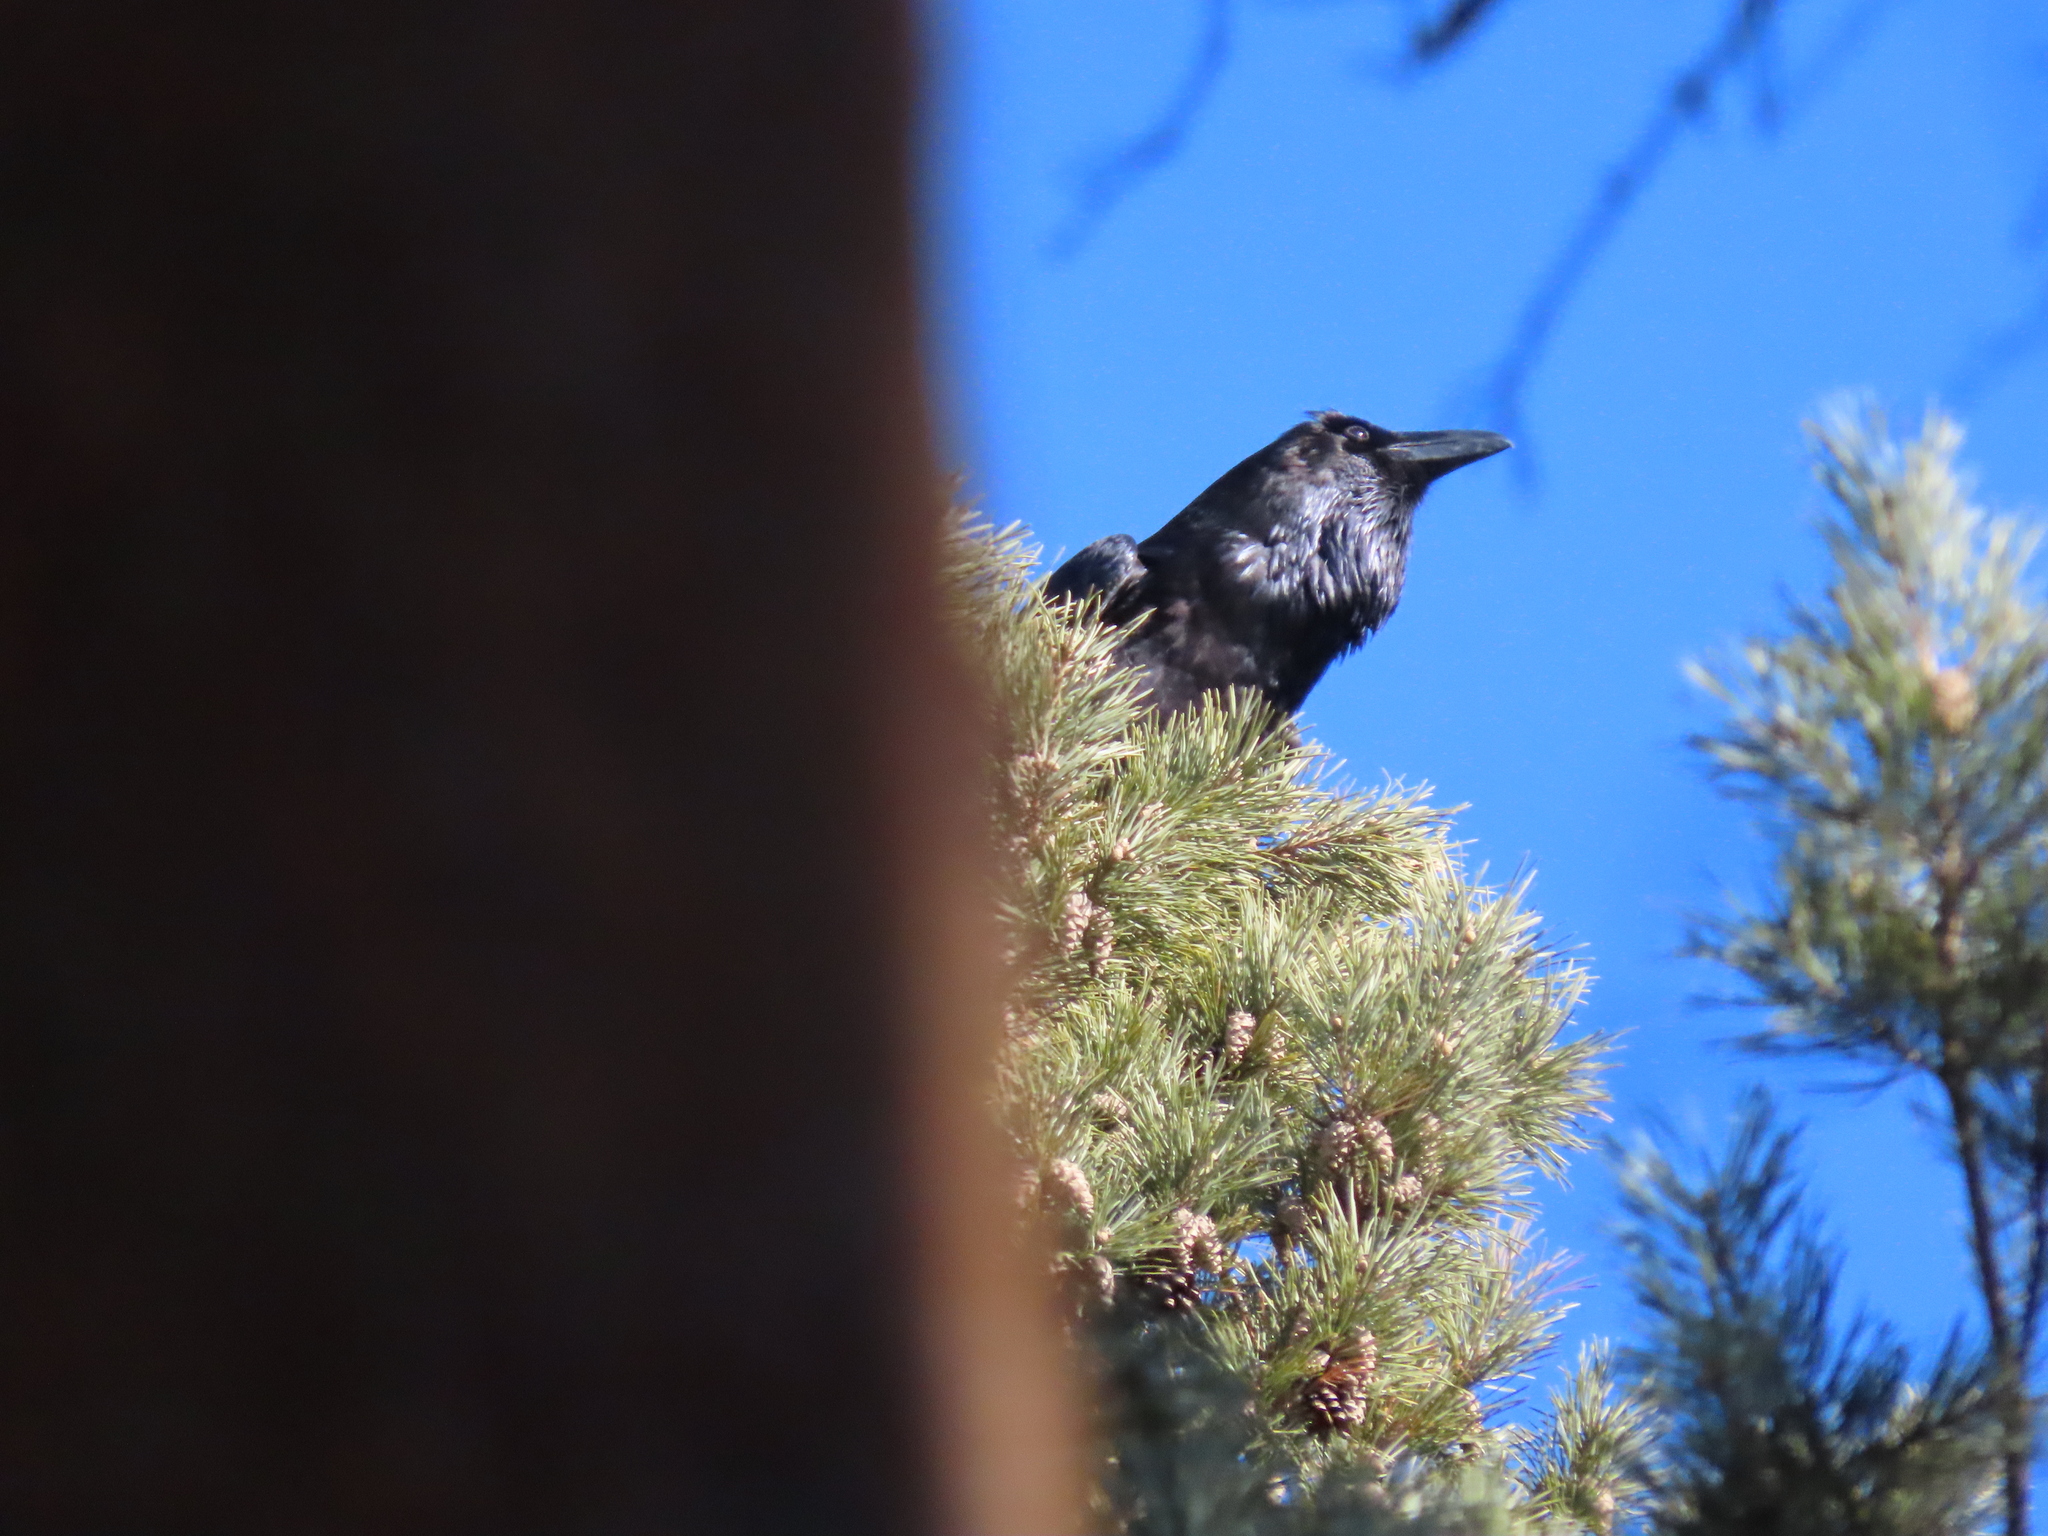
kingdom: Animalia
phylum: Chordata
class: Aves
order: Passeriformes
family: Corvidae
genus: Corvus
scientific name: Corvus corax
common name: Common raven
